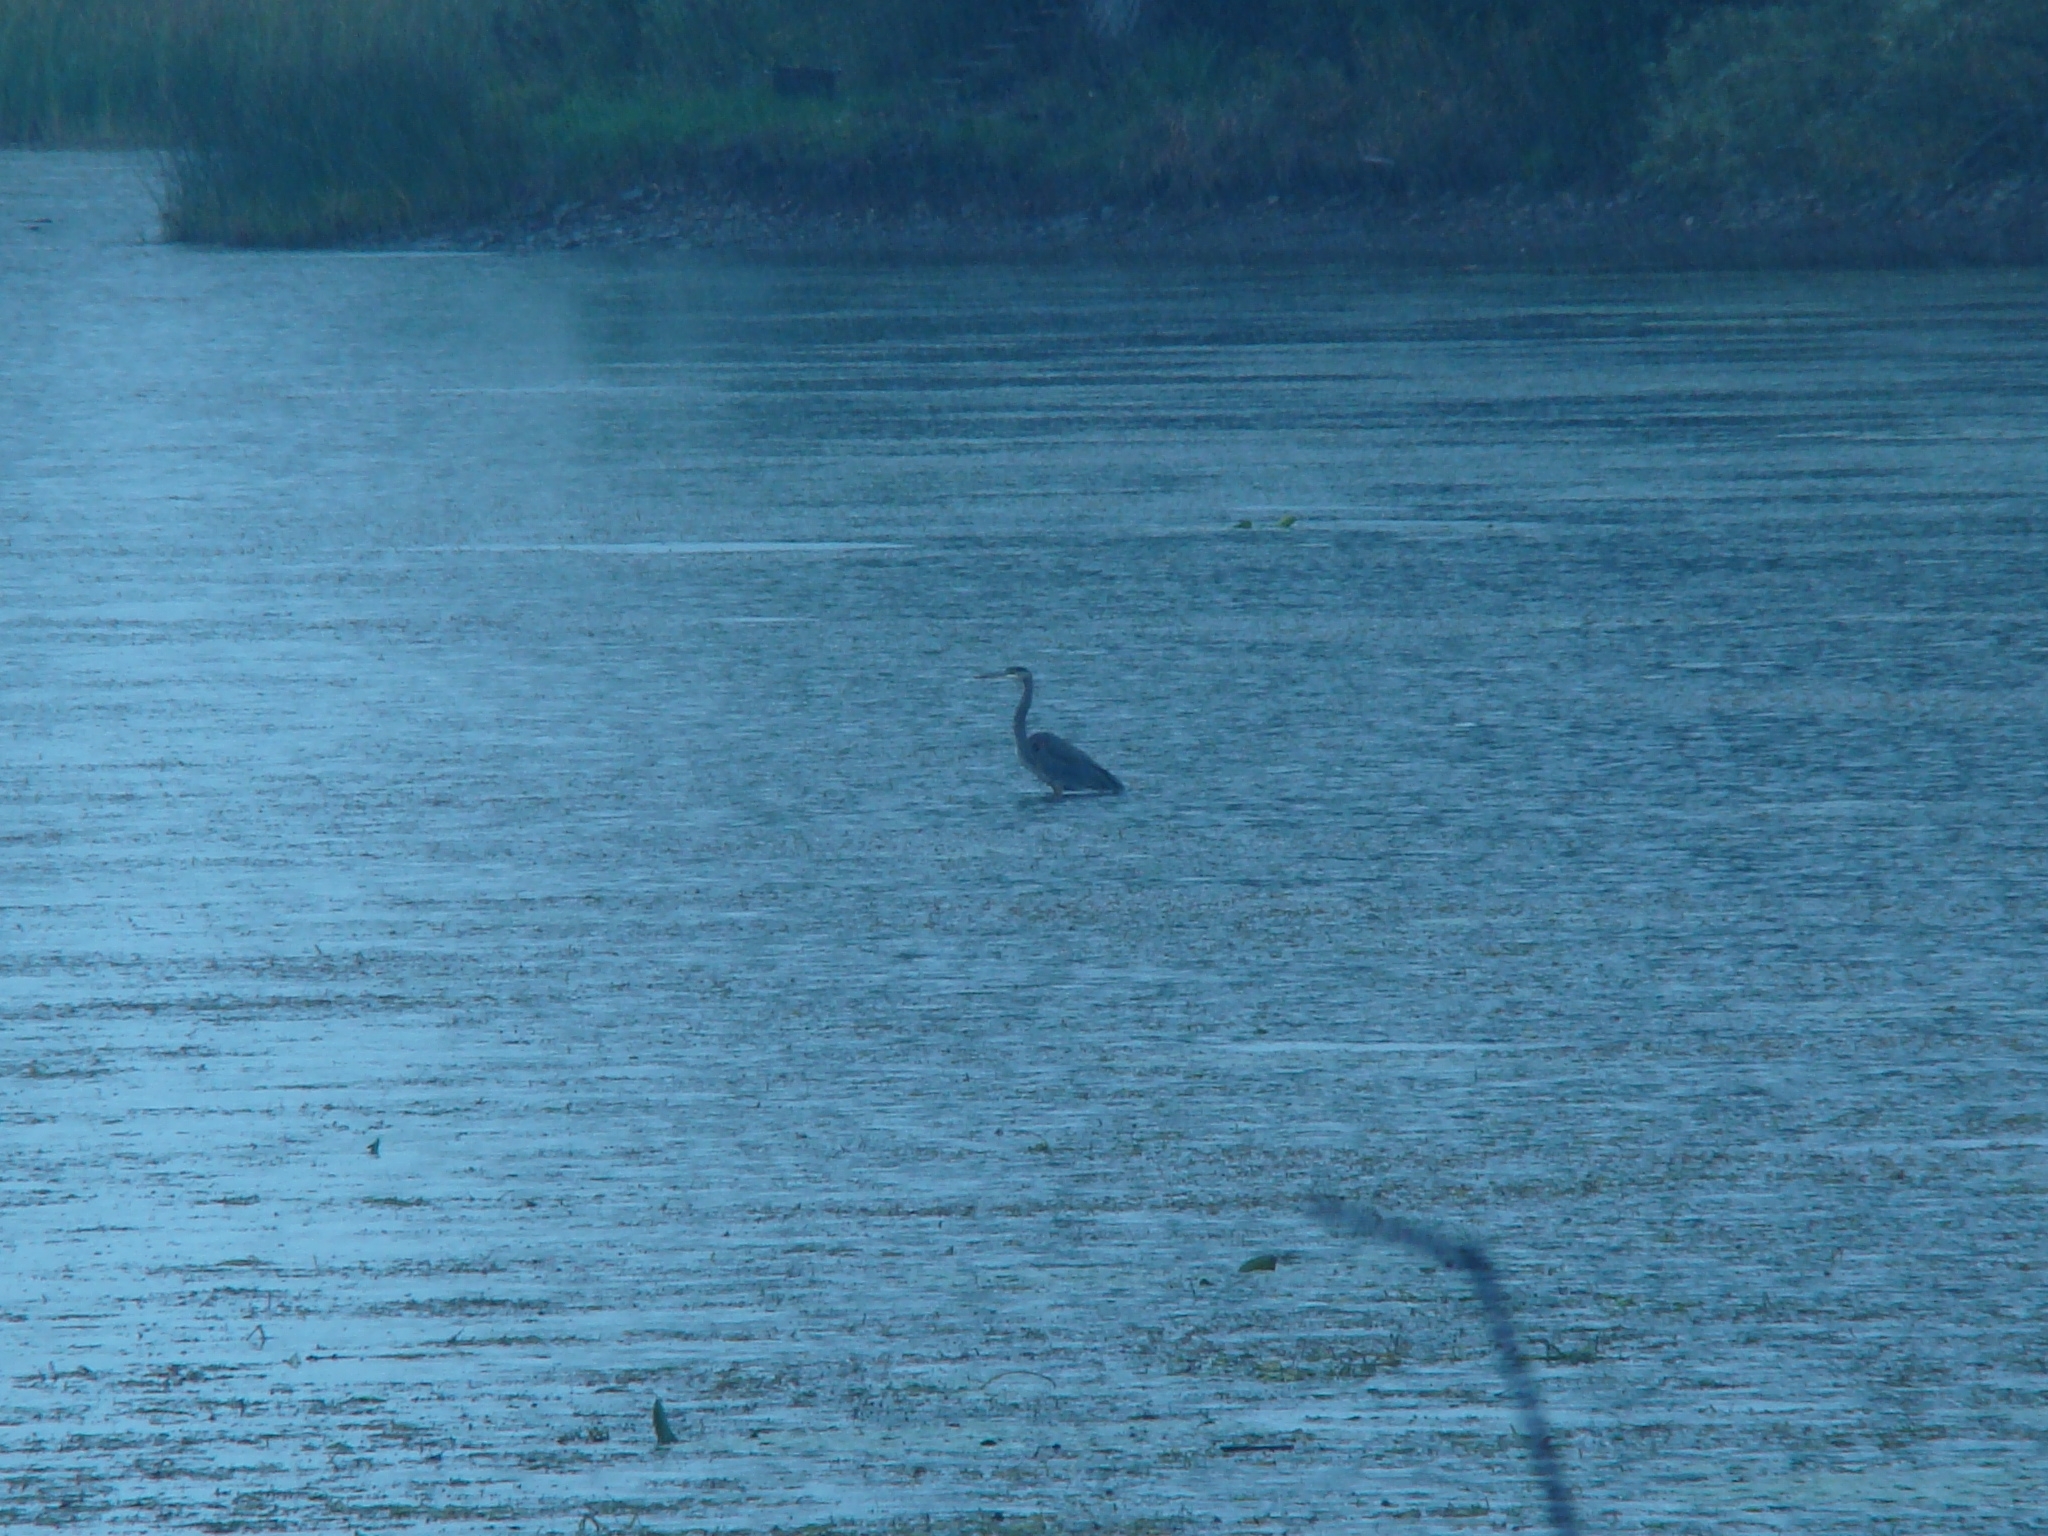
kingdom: Animalia
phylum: Chordata
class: Aves
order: Pelecaniformes
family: Ardeidae
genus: Ardea
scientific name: Ardea herodias
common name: Great blue heron
